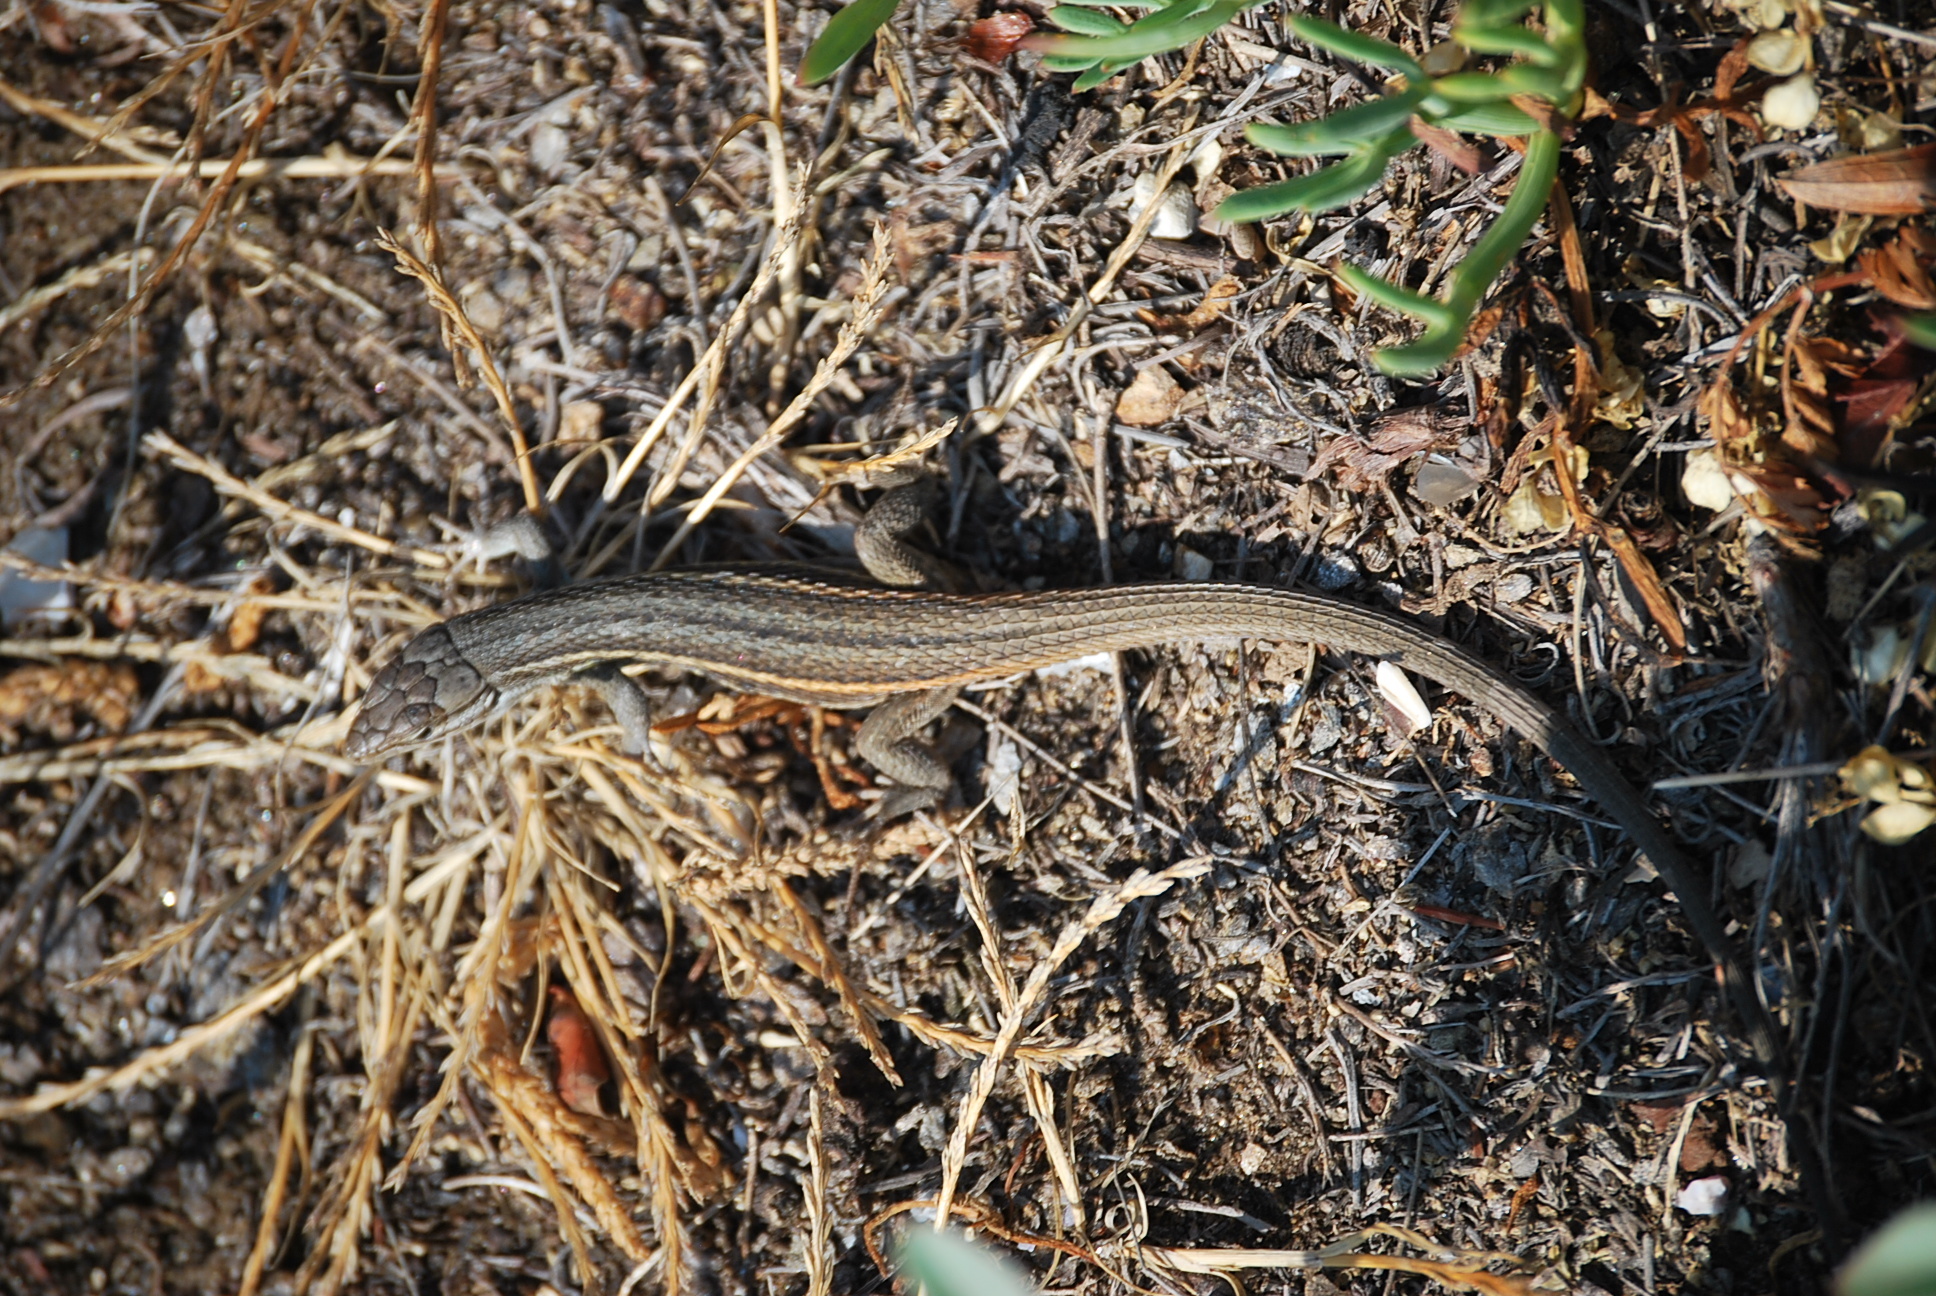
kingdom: Animalia
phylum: Chordata
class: Squamata
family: Lacertidae
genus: Psammodromus
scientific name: Psammodromus algirus
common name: Algerian psammodromus
